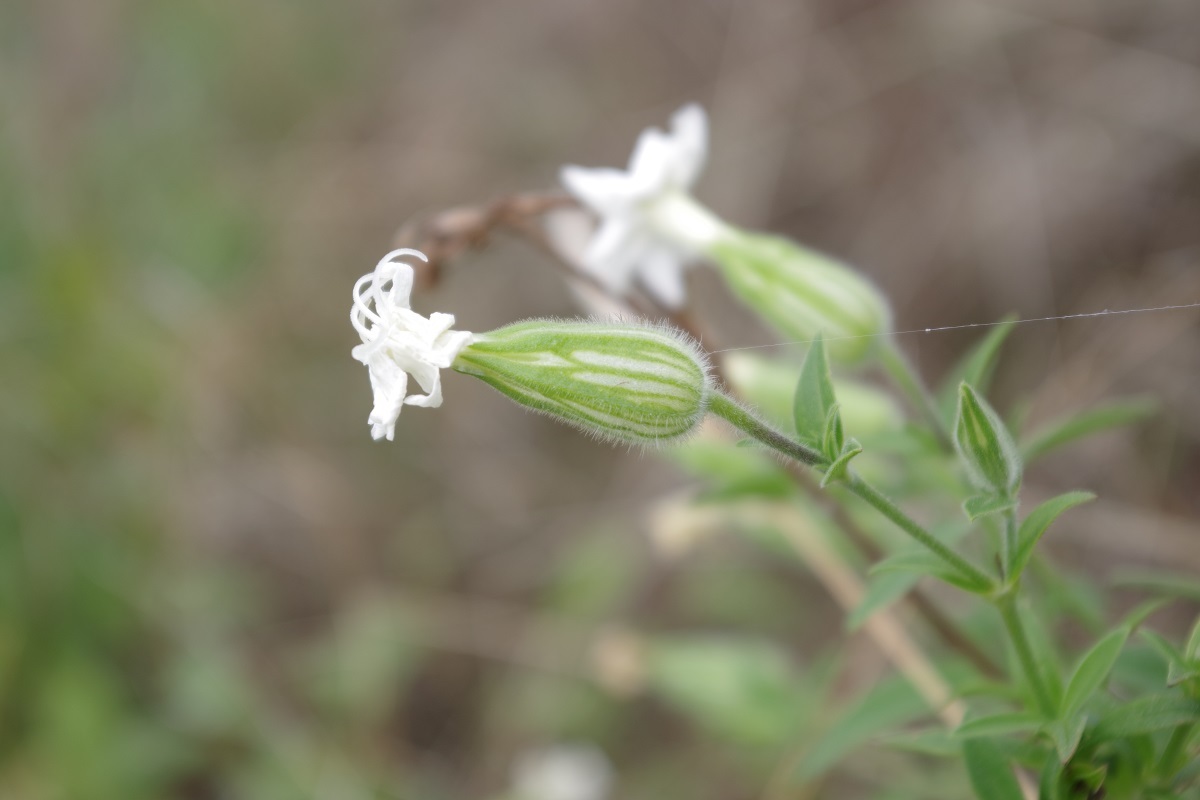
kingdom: Plantae
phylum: Tracheophyta
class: Magnoliopsida
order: Caryophyllales
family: Caryophyllaceae
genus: Silene
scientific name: Silene latifolia
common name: White campion
